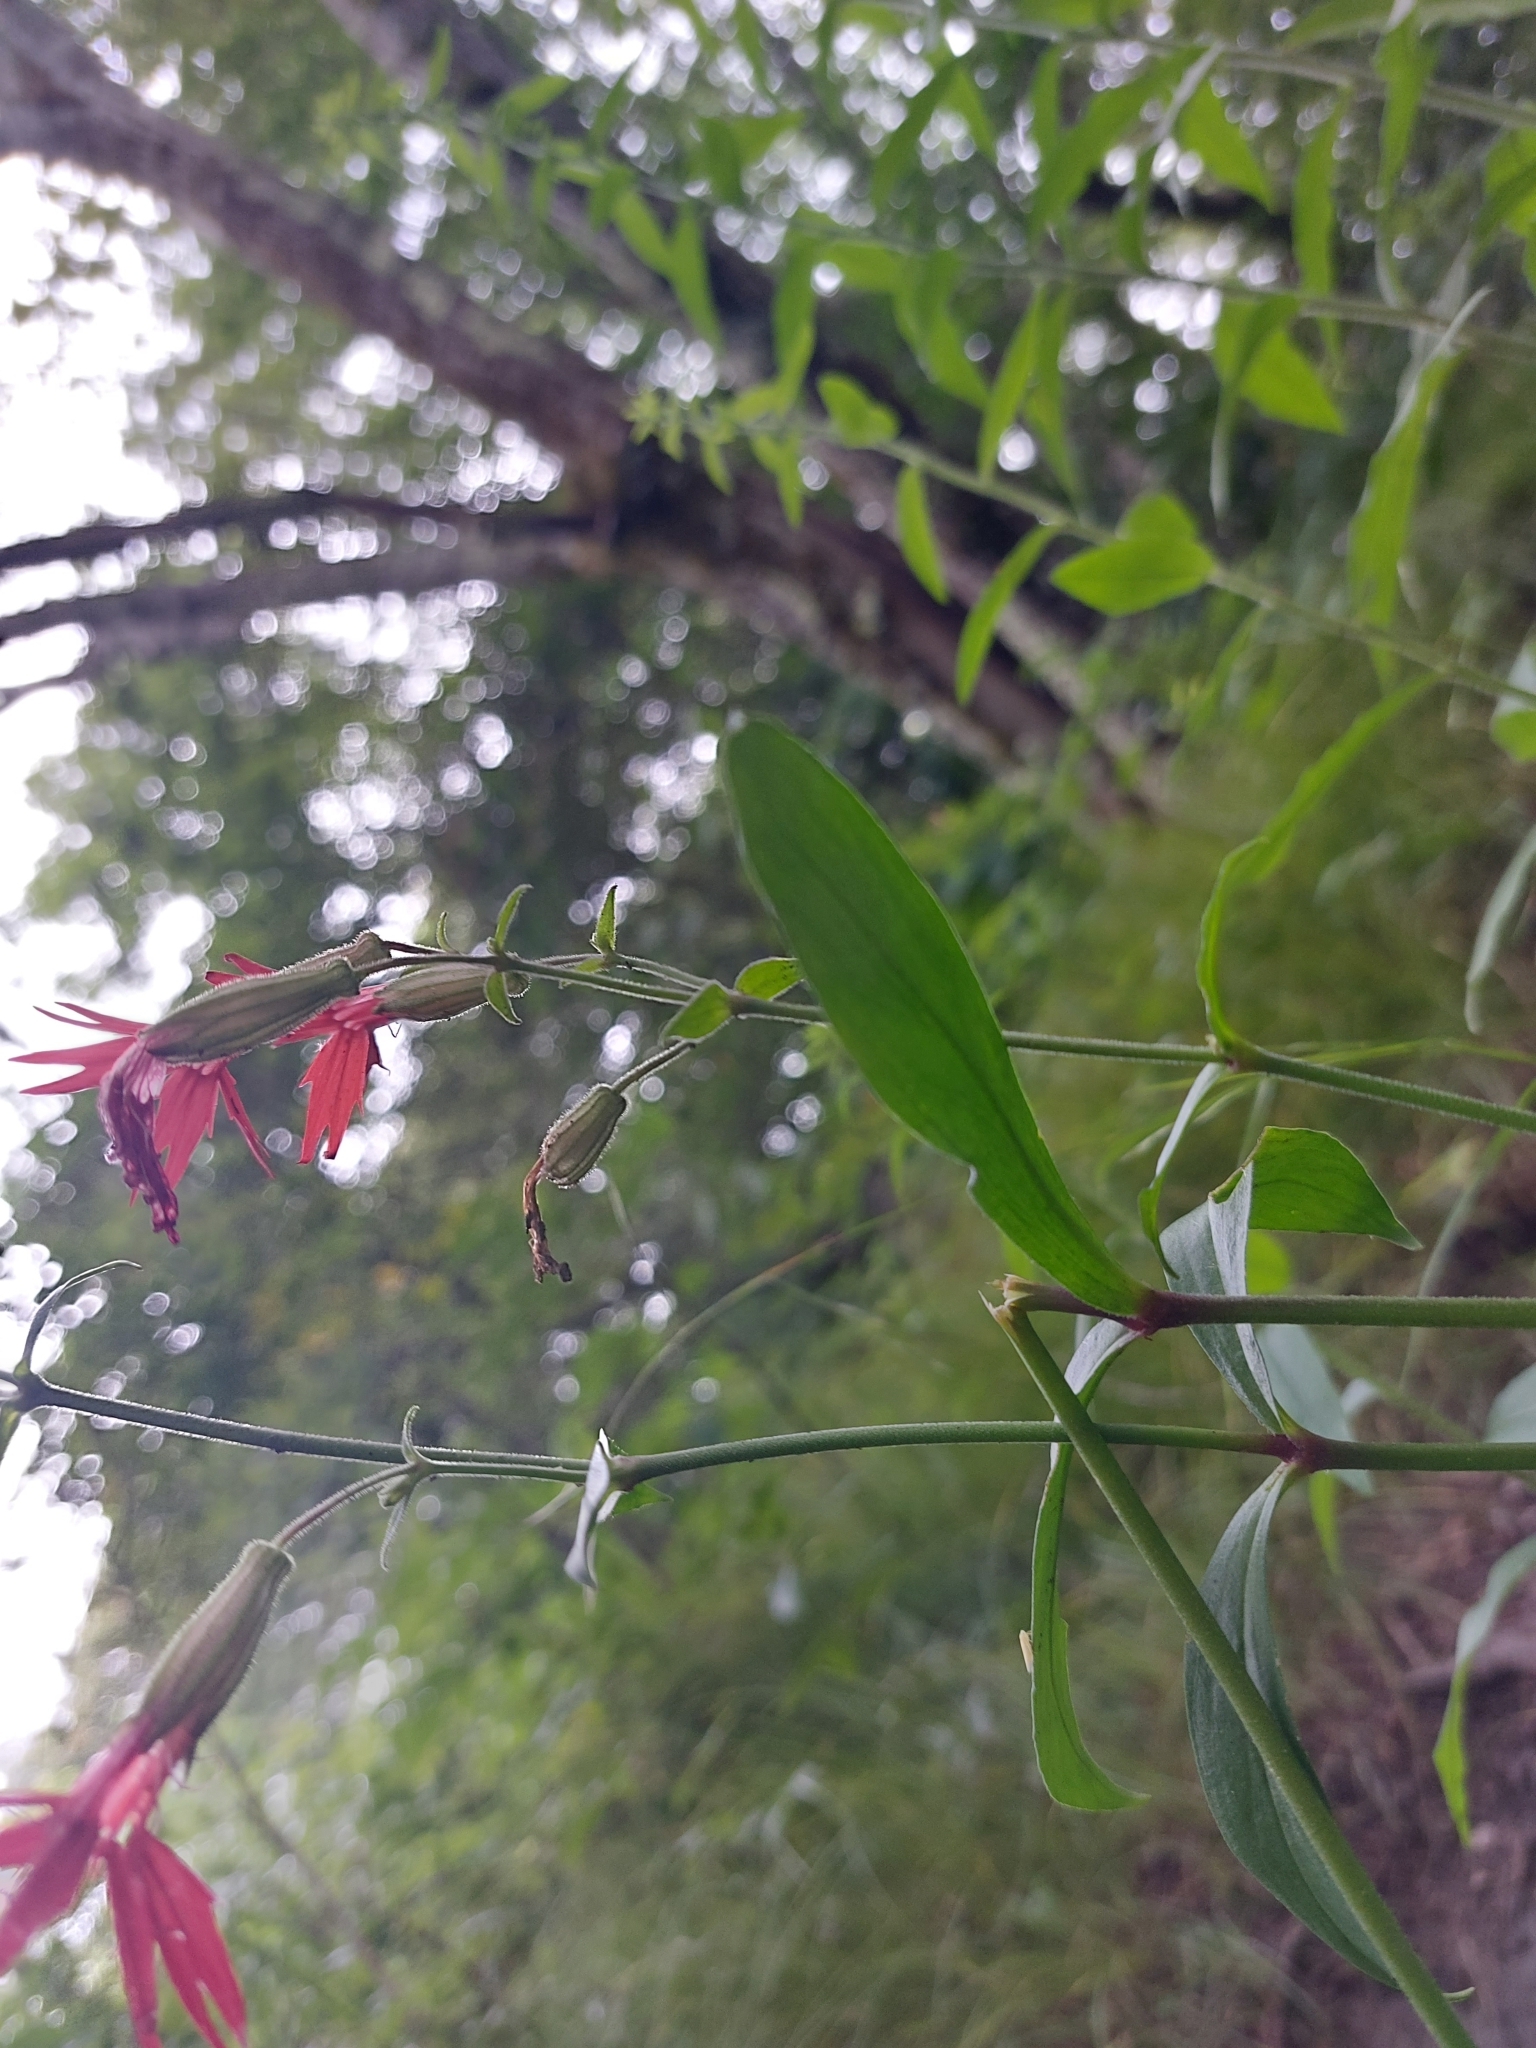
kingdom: Plantae
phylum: Tracheophyta
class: Magnoliopsida
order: Caryophyllales
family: Caryophyllaceae
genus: Silene
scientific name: Silene virginica
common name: Fire-pink
